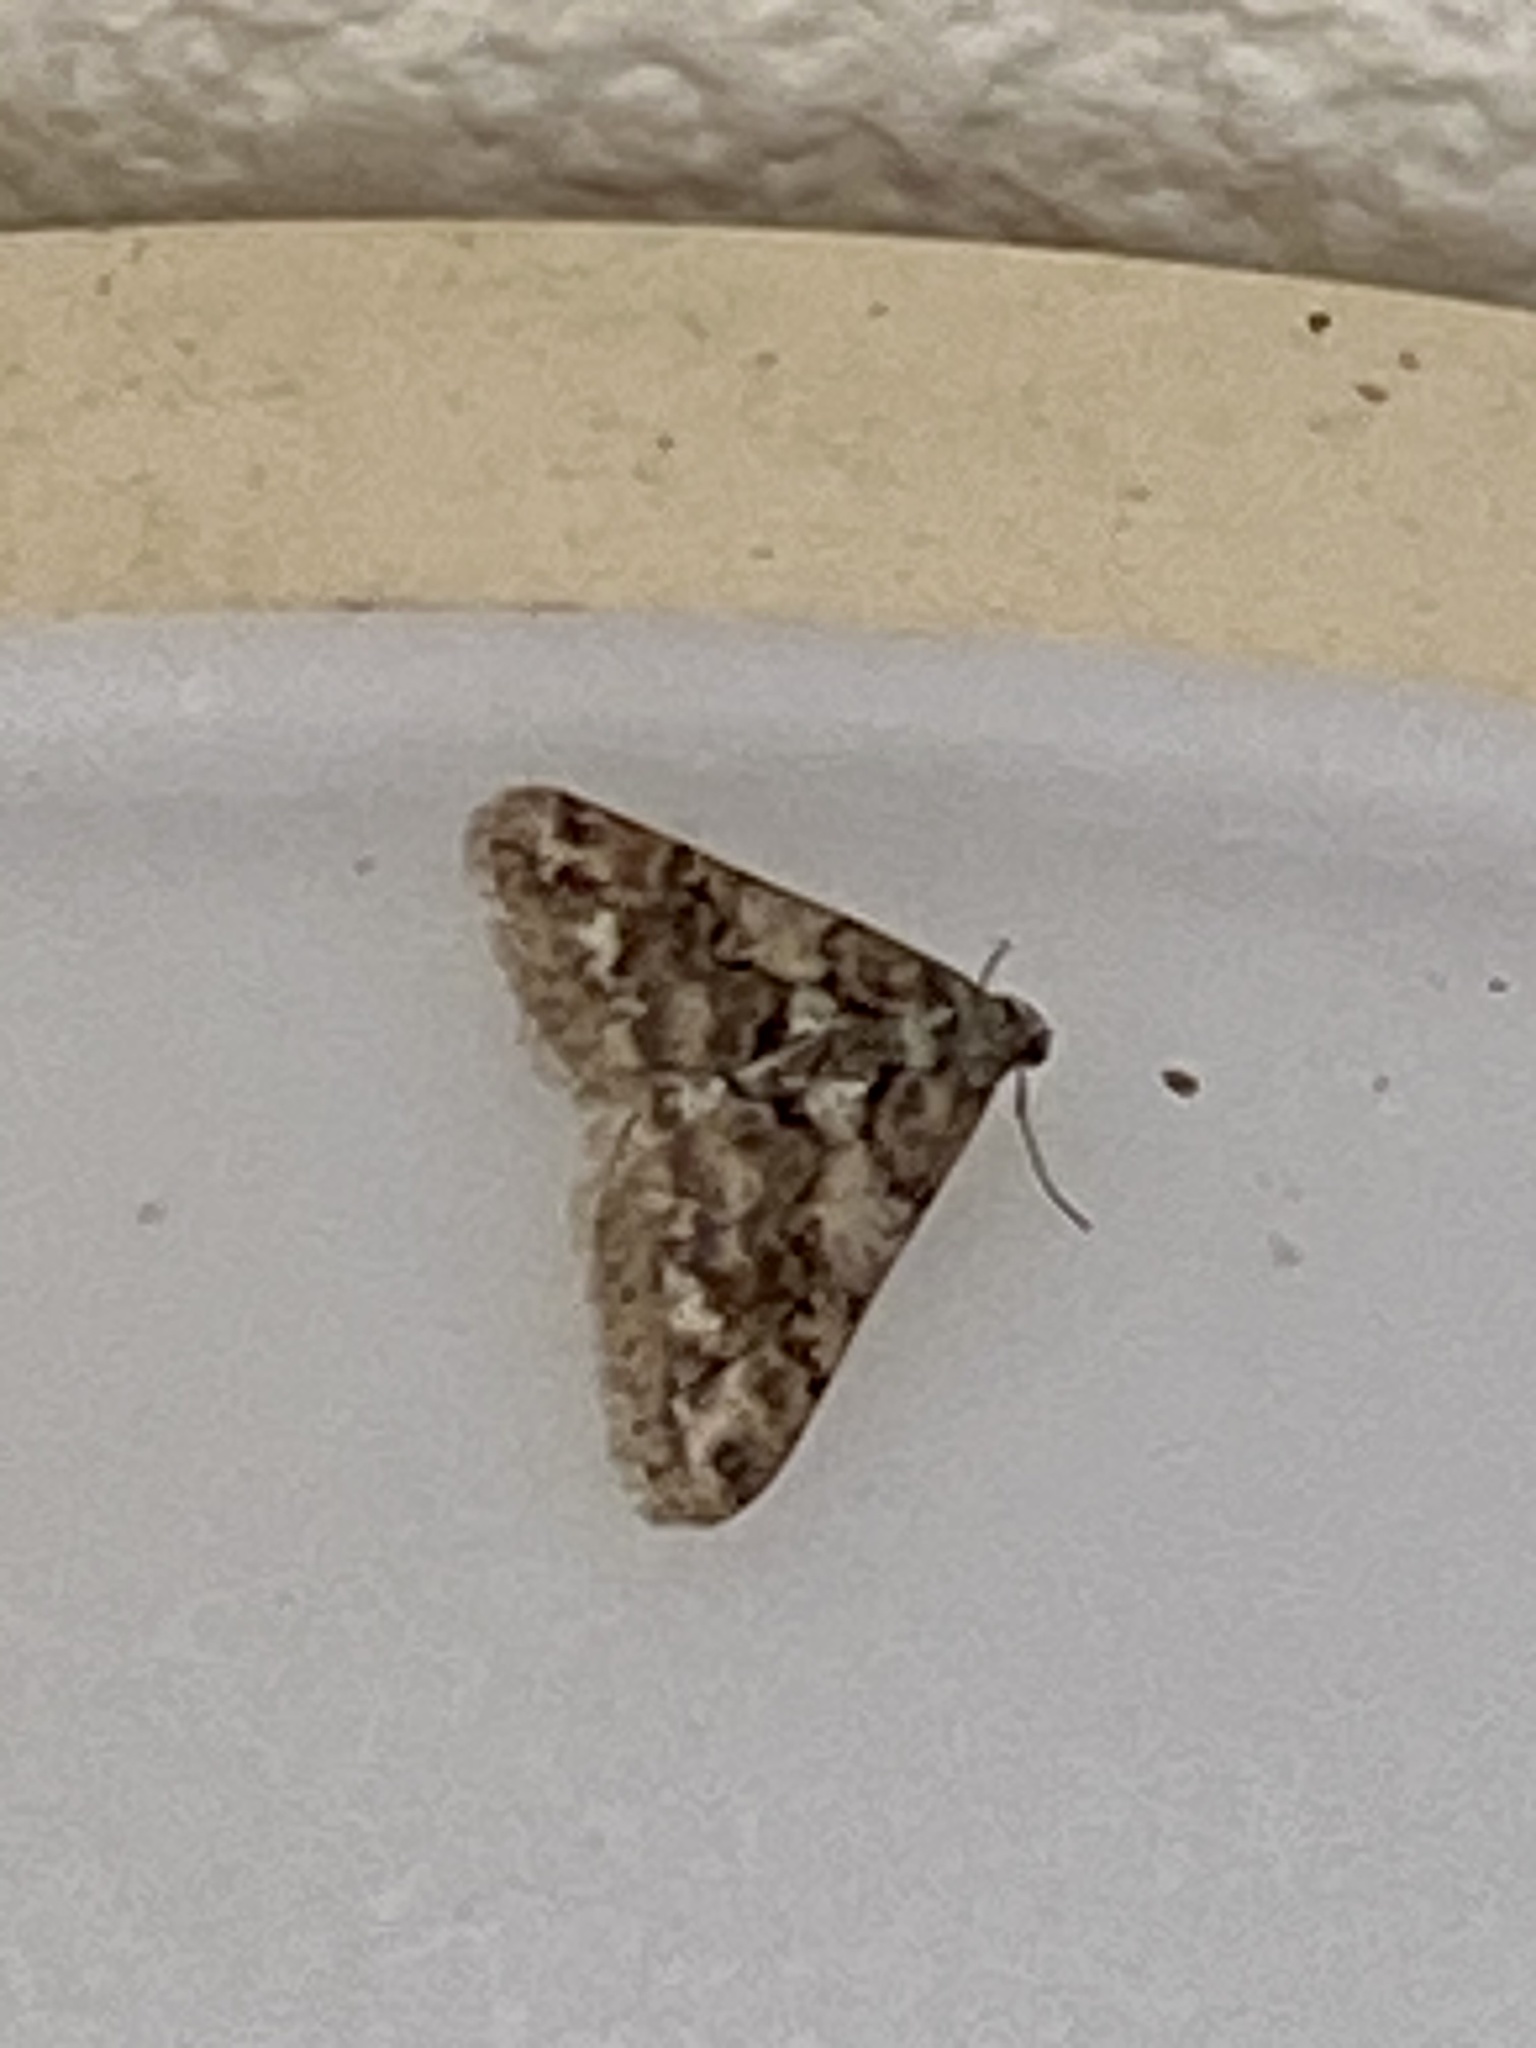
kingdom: Animalia
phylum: Arthropoda
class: Insecta
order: Lepidoptera
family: Geometridae
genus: Agriopis
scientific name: Agriopis dira
